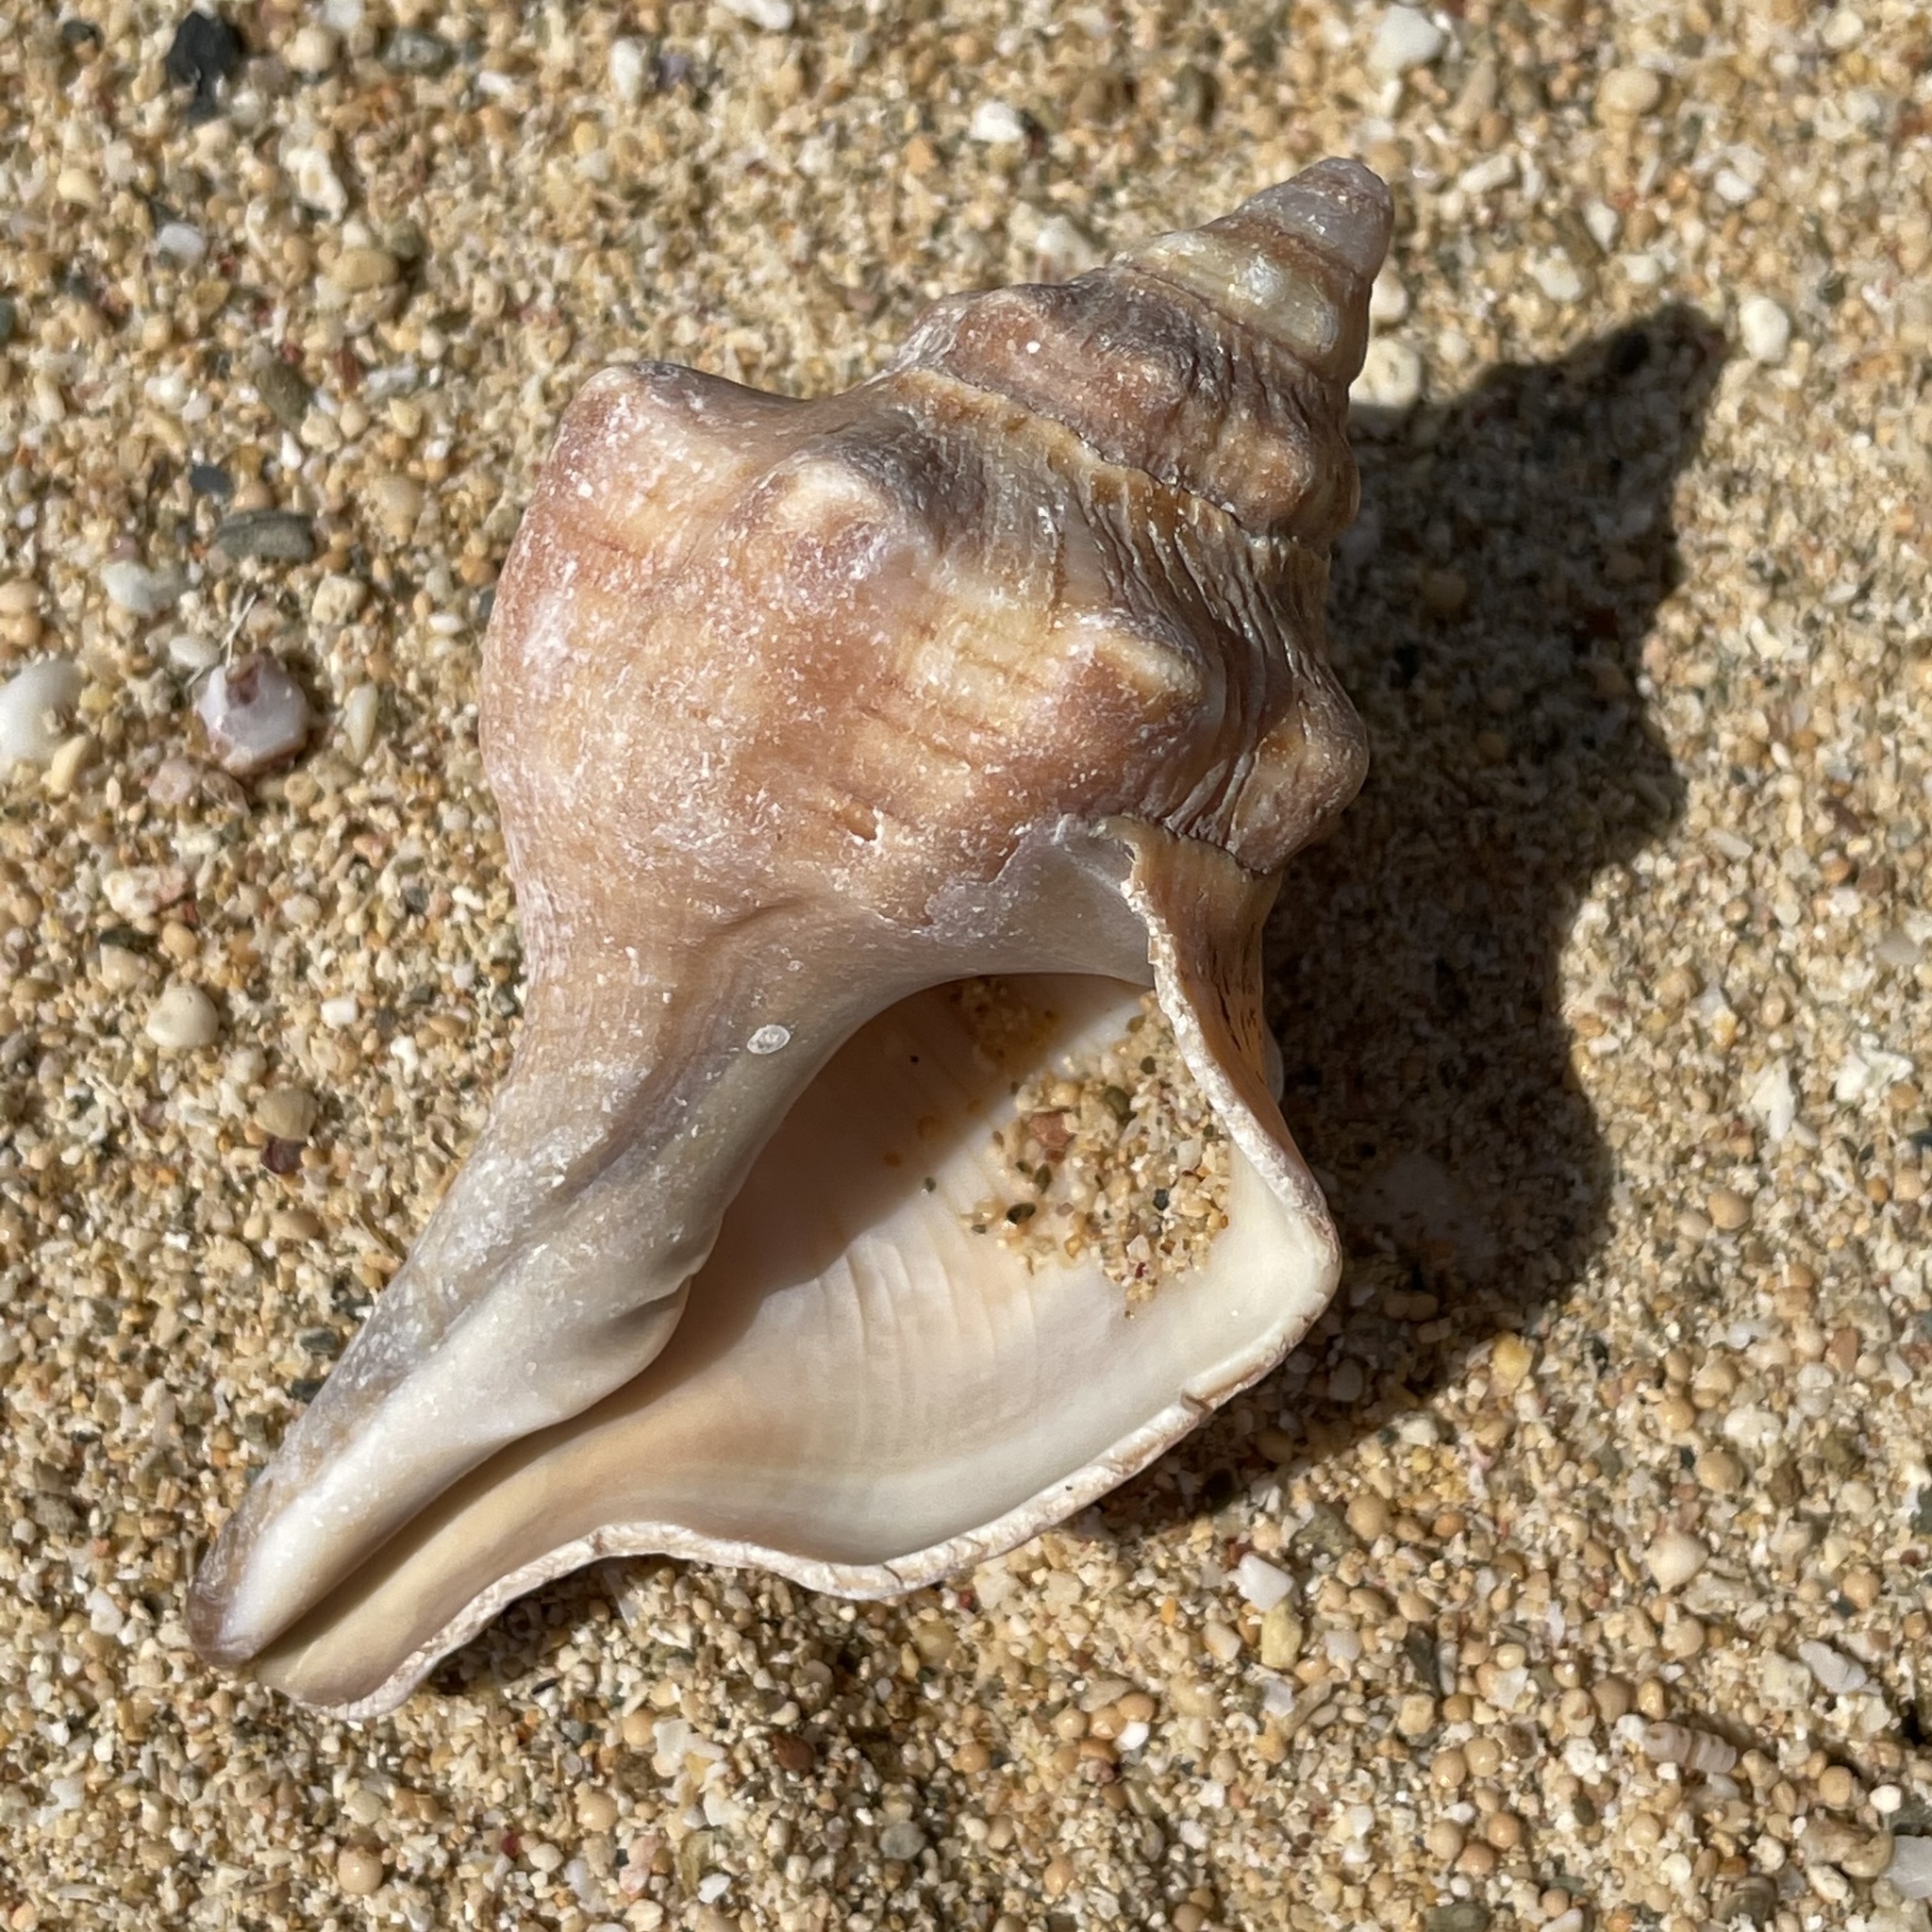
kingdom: Animalia
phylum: Mollusca
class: Gastropoda
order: Neogastropoda
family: Fasciolariidae
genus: Pleuroploca
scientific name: Pleuroploca trapezium
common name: Trapeze horseconch
